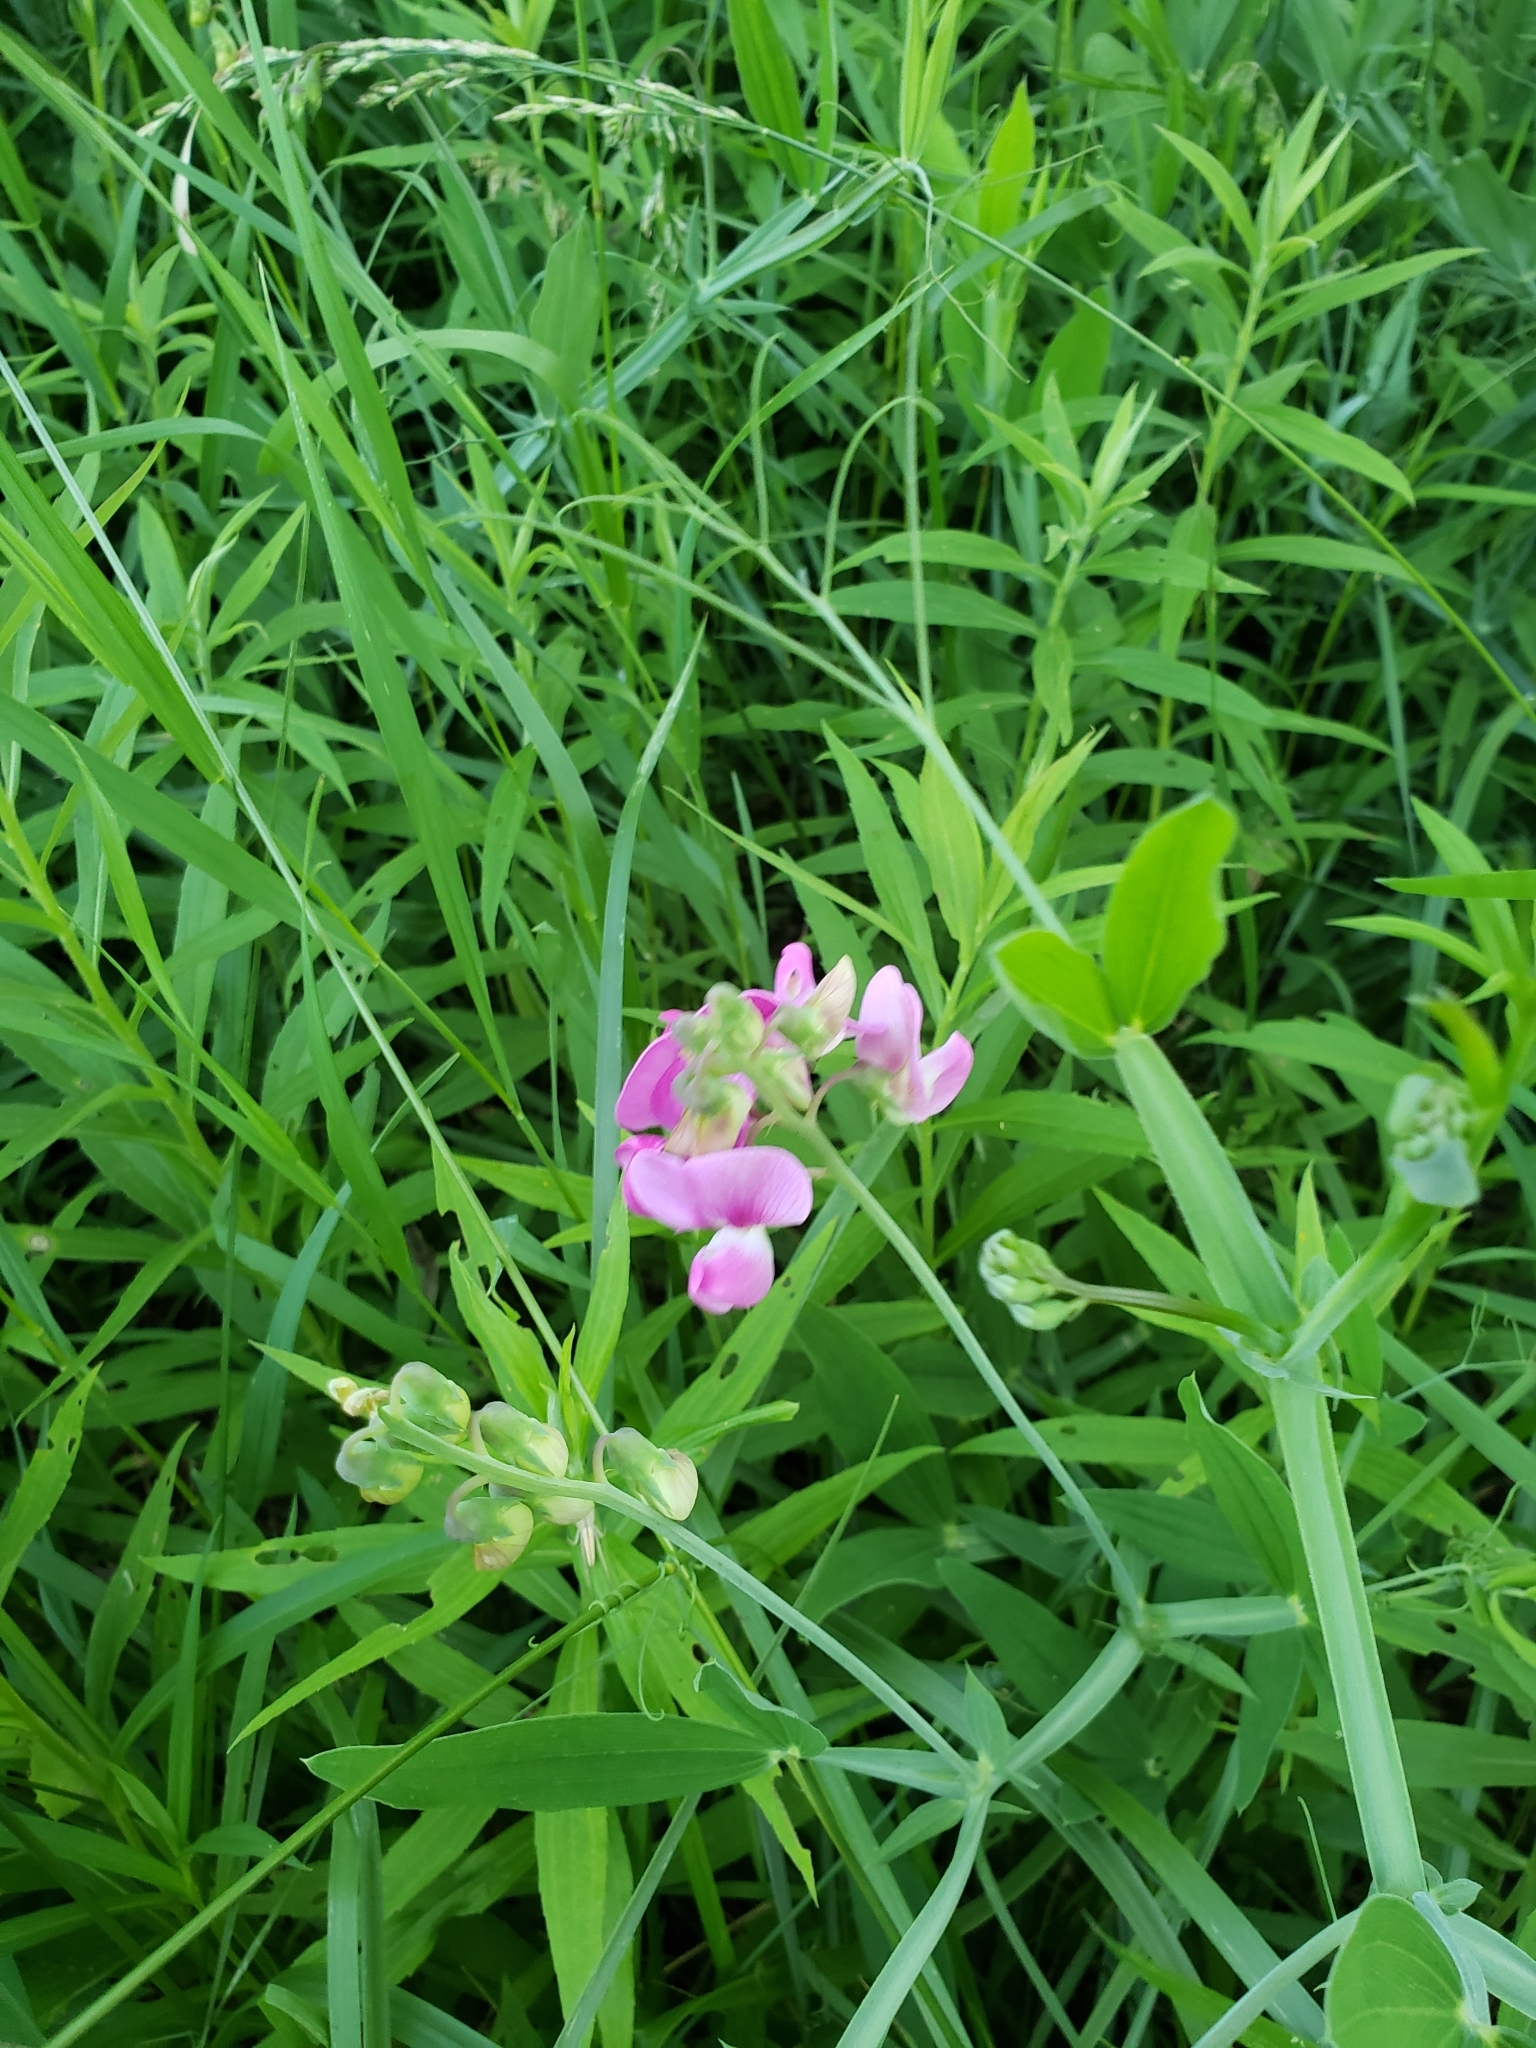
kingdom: Plantae
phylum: Tracheophyta
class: Magnoliopsida
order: Fabales
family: Fabaceae
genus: Lathyrus
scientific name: Lathyrus latifolius
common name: Perennial pea
